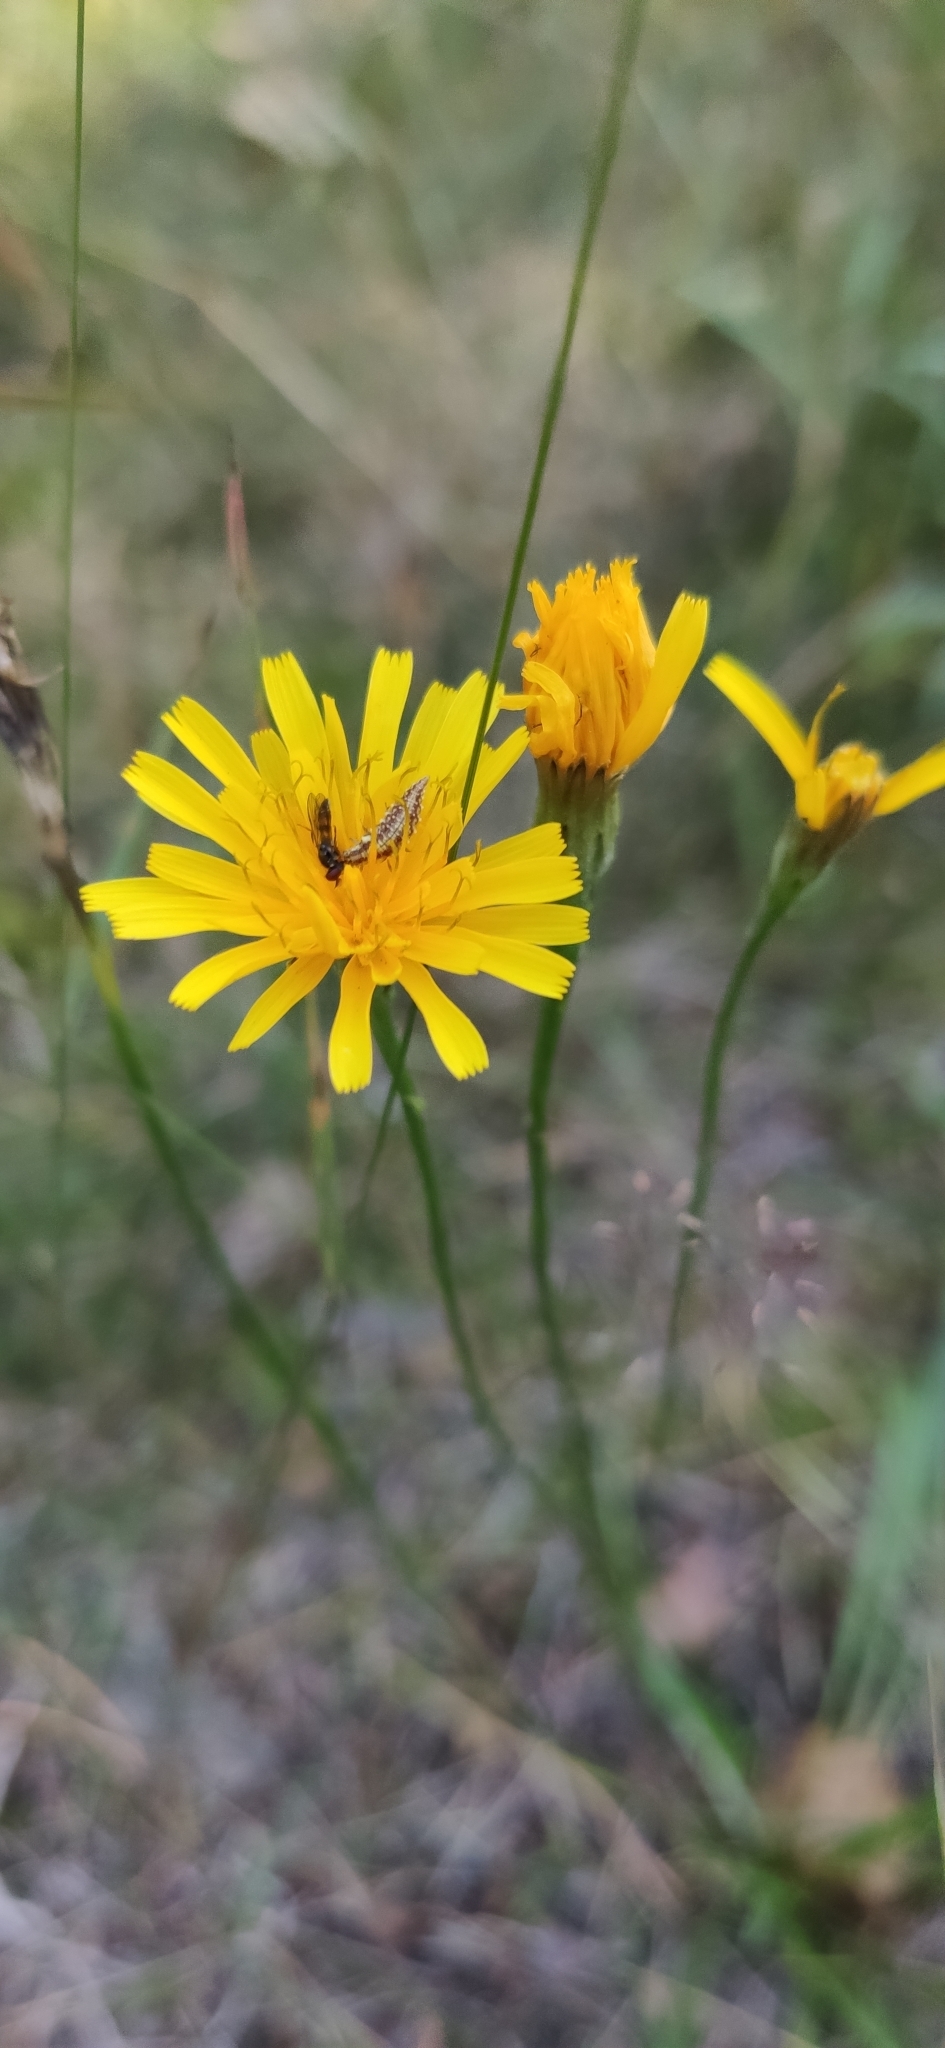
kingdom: Plantae
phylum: Tracheophyta
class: Magnoliopsida
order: Asterales
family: Asteraceae
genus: Scorzoneroides
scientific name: Scorzoneroides autumnalis
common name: Autumn hawkbit
